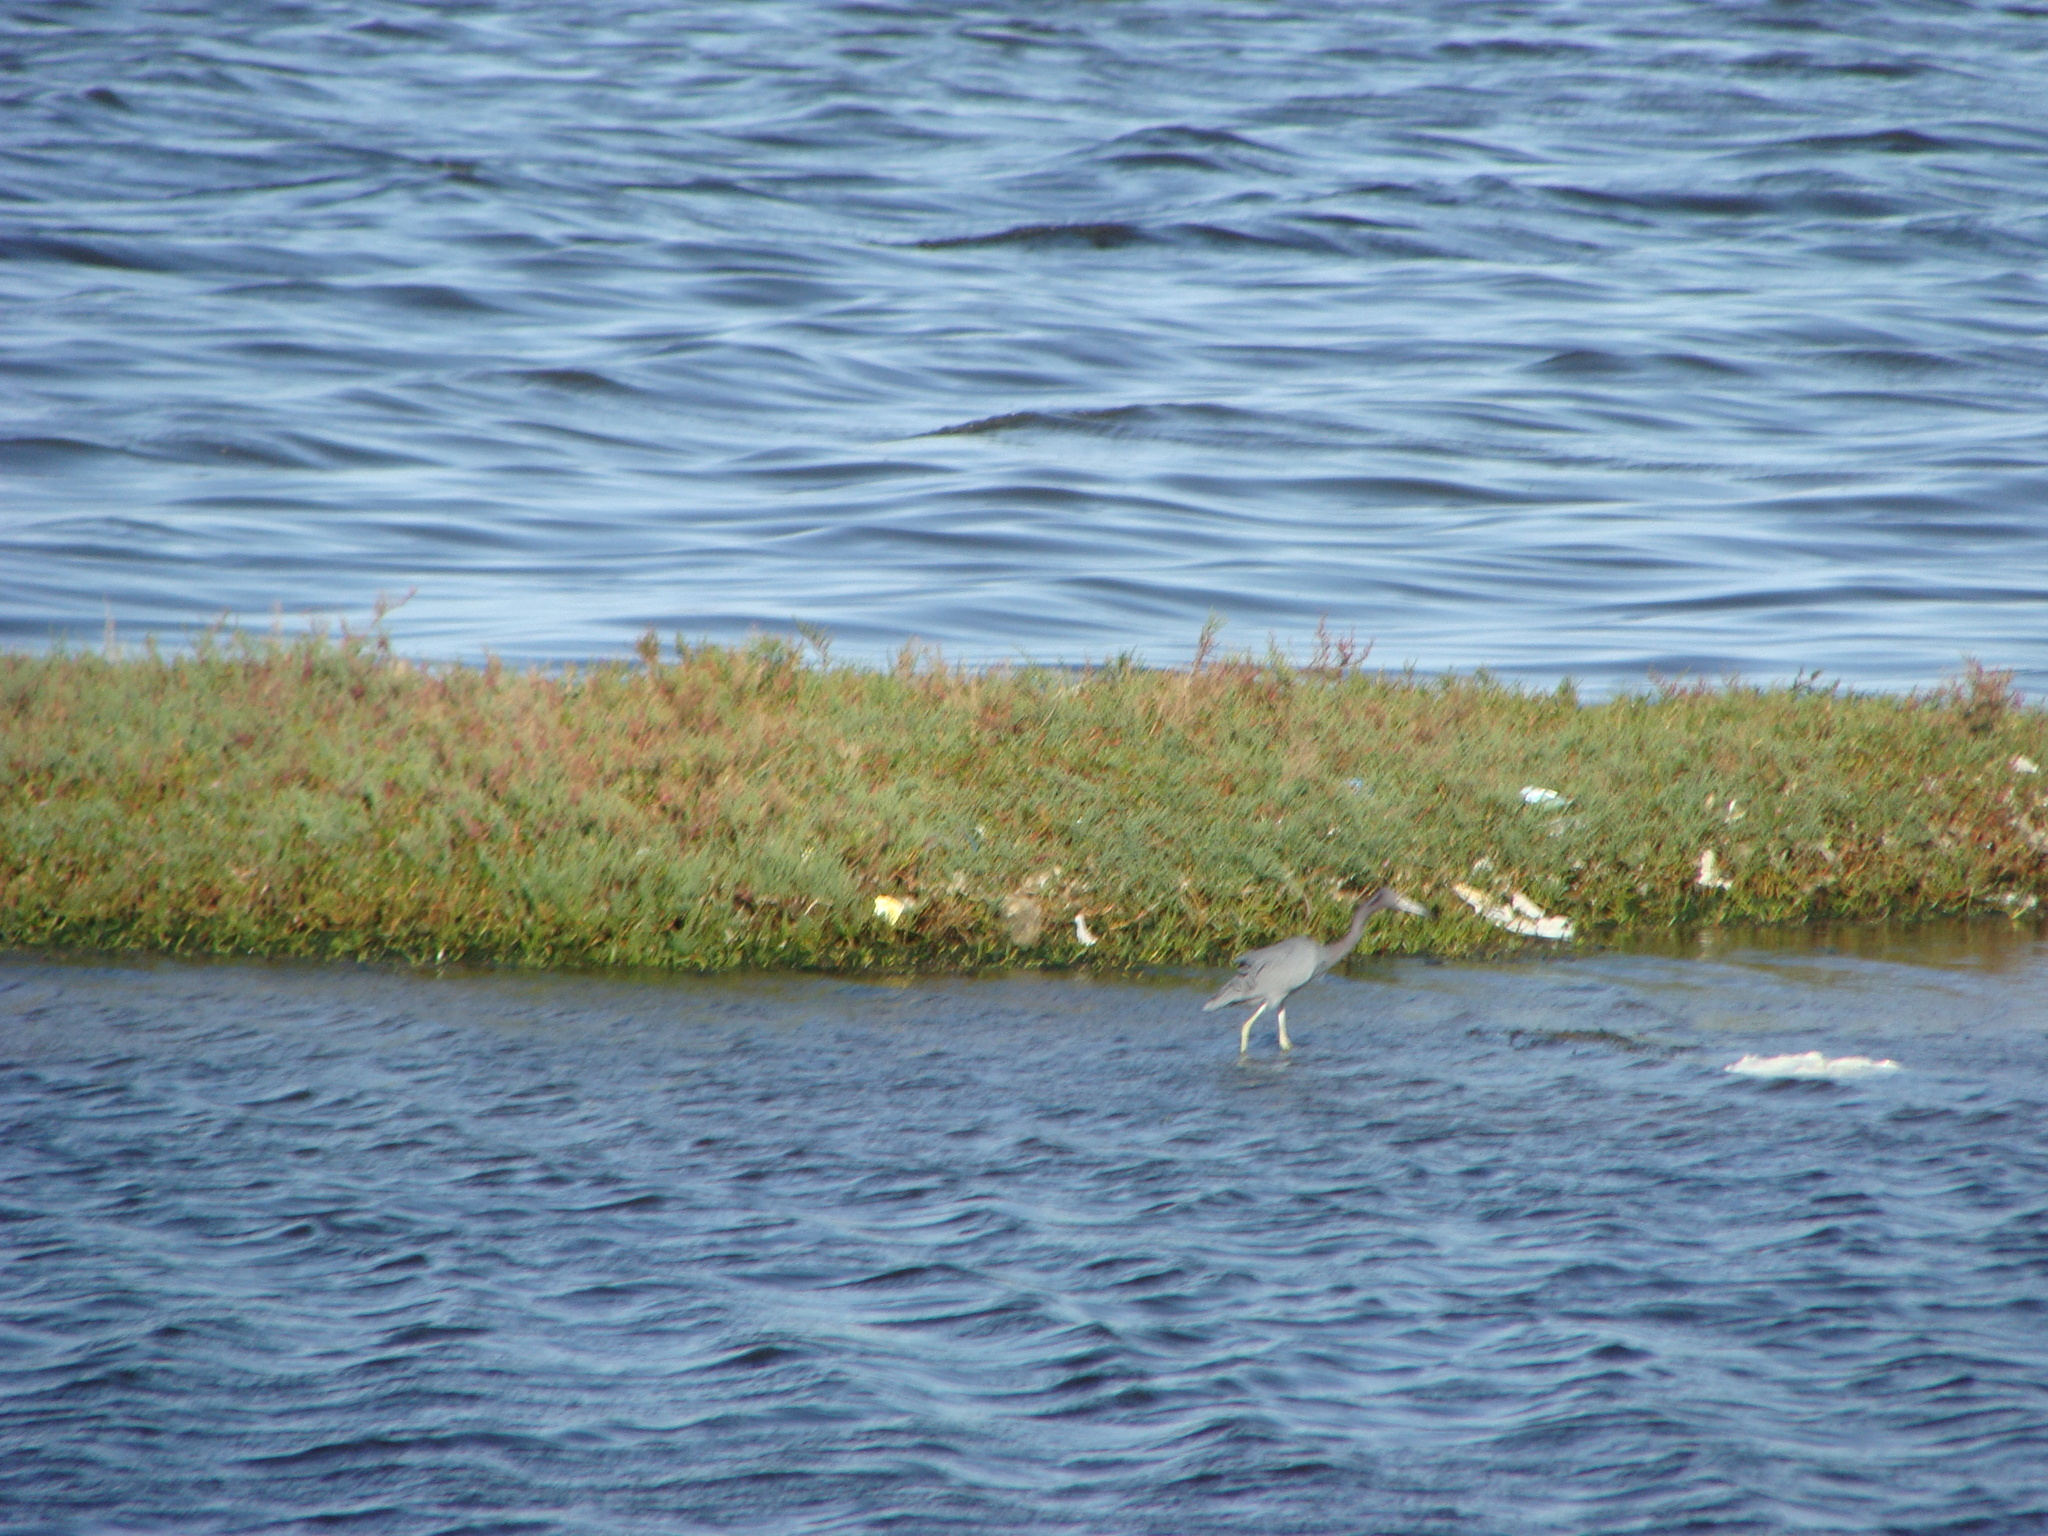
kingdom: Animalia
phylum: Chordata
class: Aves
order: Pelecaniformes
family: Ardeidae
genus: Egretta
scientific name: Egretta caerulea
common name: Little blue heron
